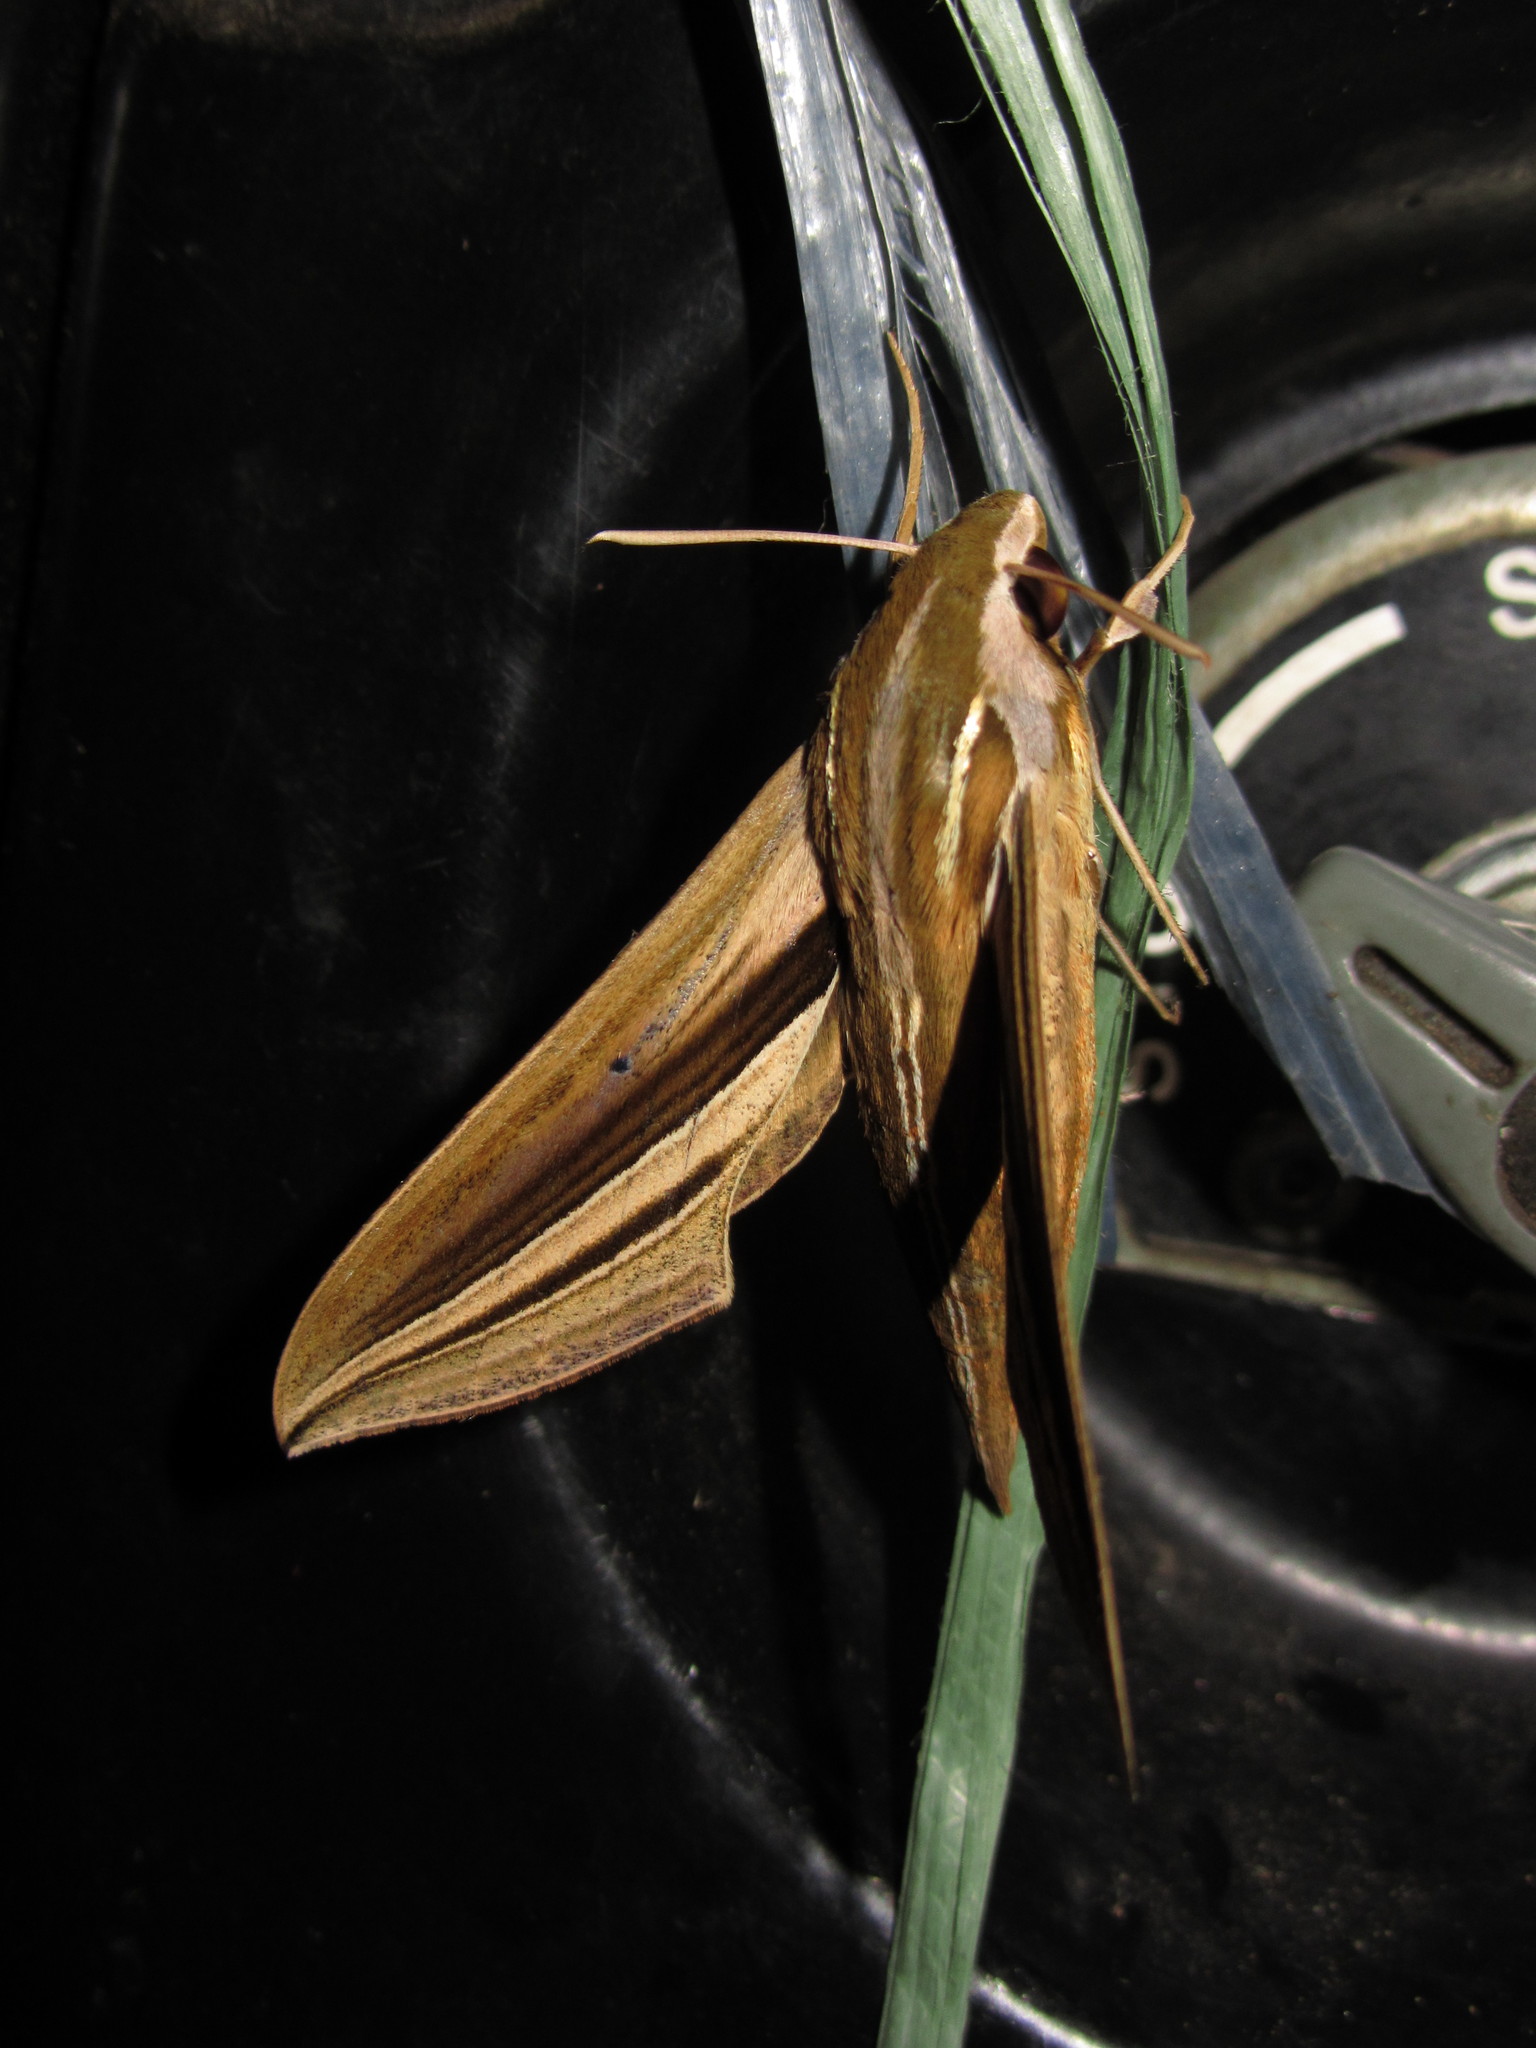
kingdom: Animalia
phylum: Arthropoda
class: Insecta
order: Lepidoptera
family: Sphingidae
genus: Theretra
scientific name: Theretra oldenlandiae
